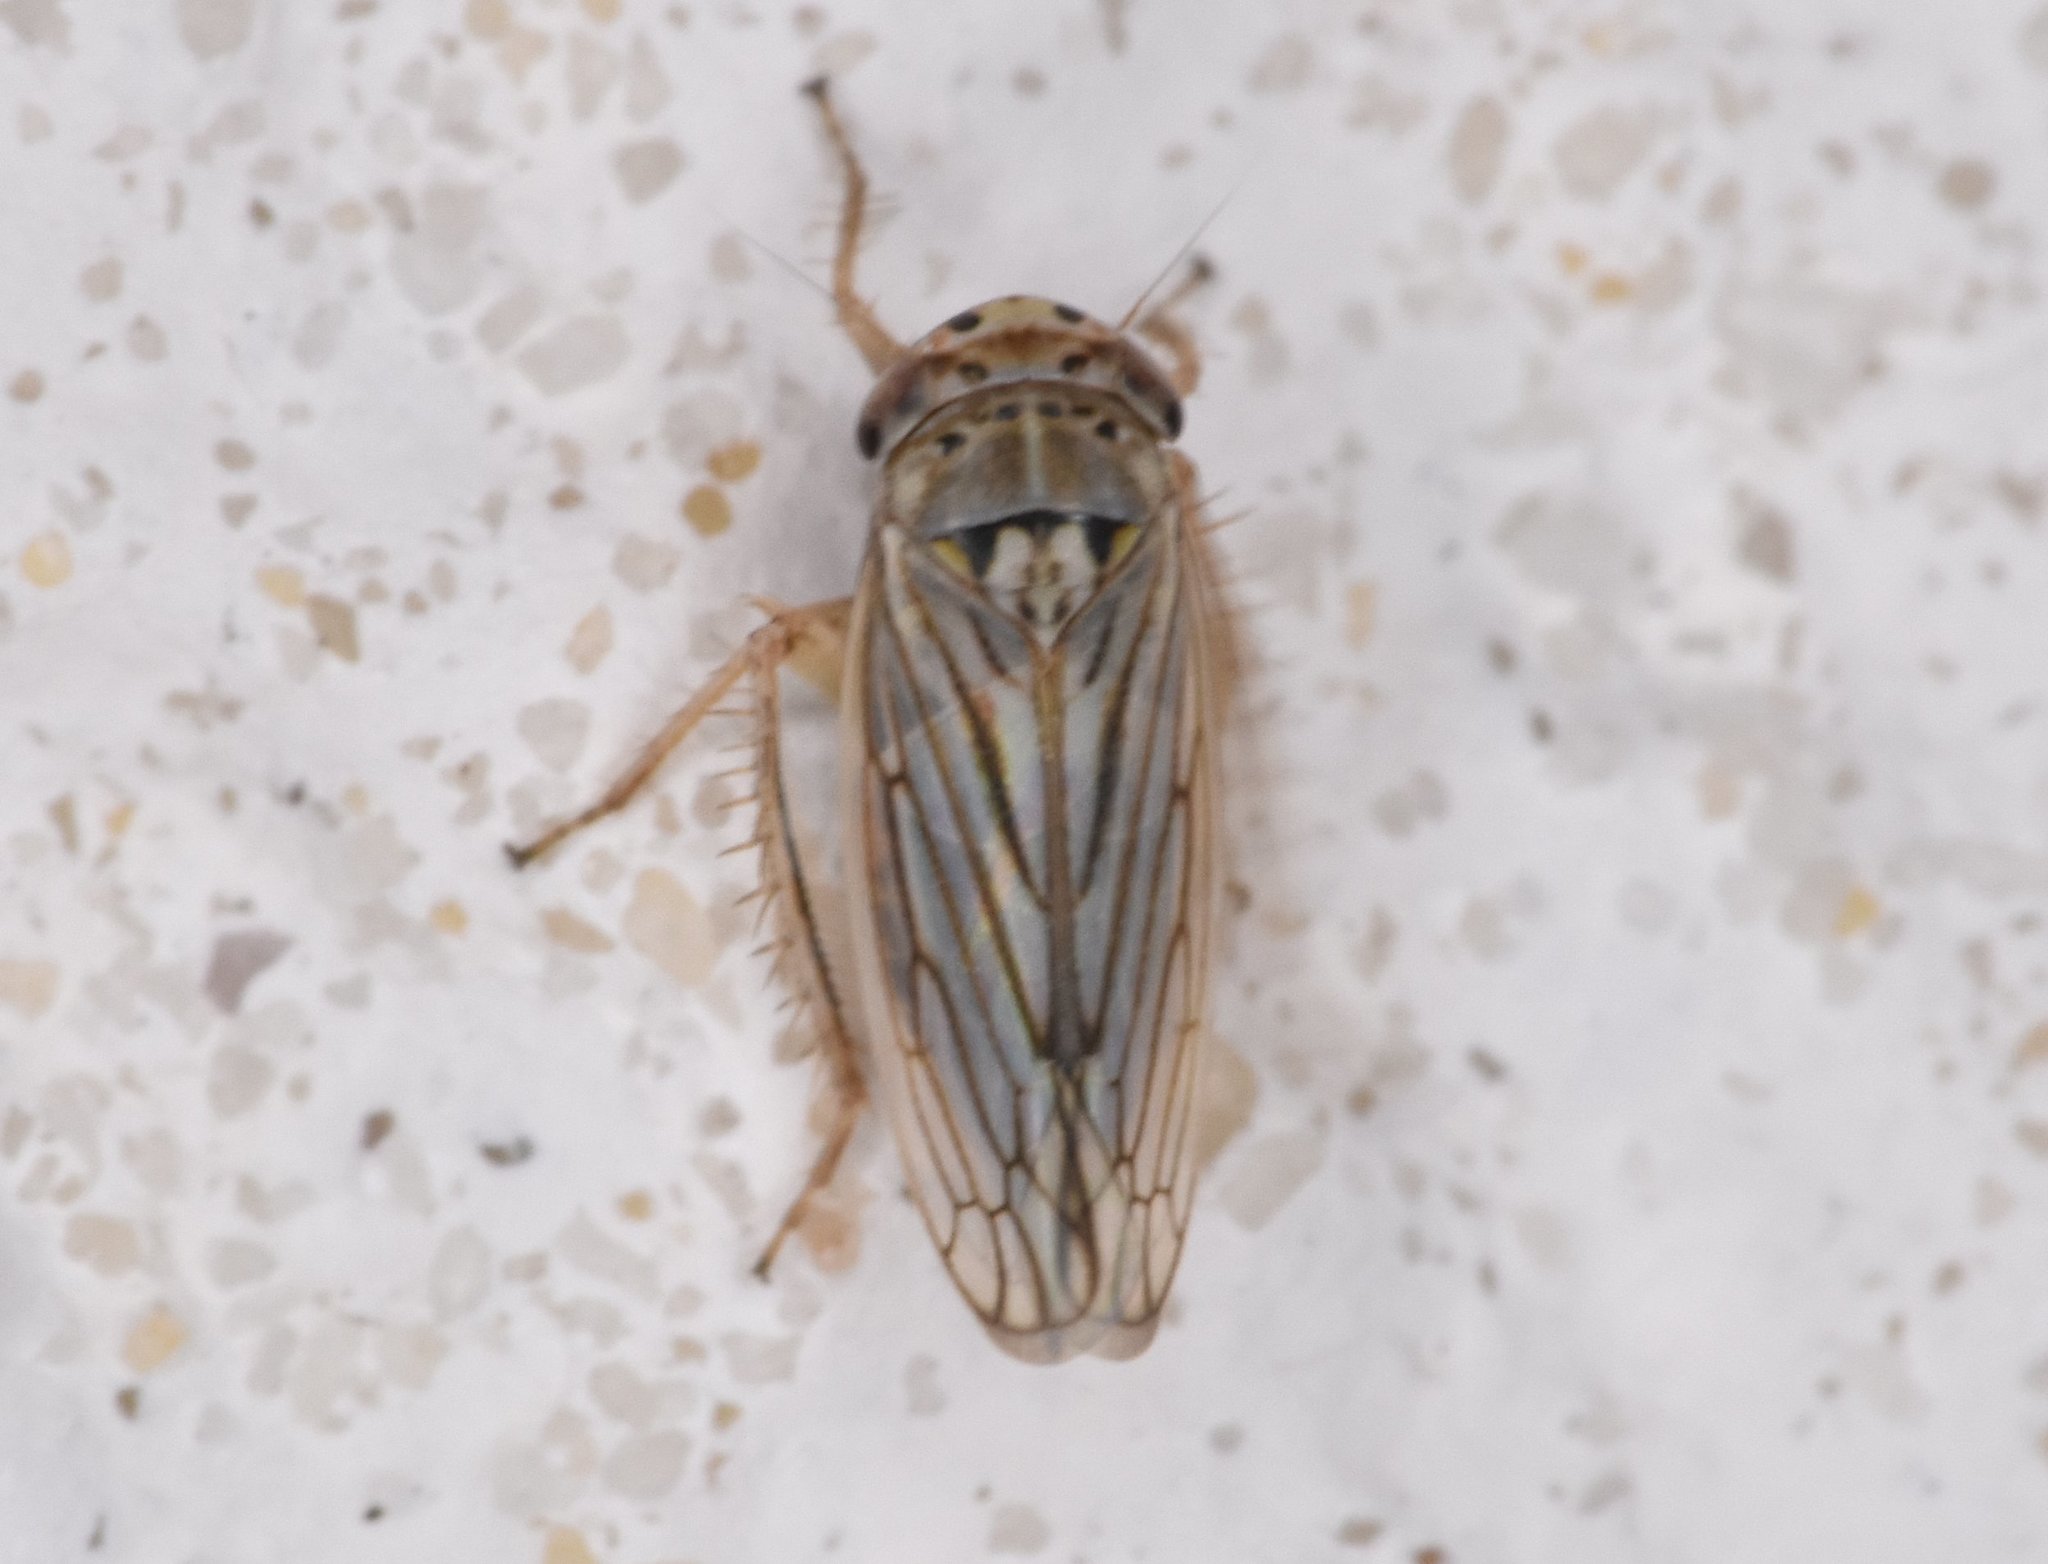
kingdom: Animalia
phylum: Arthropoda
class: Insecta
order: Hemiptera
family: Cicadellidae
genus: Exitianus
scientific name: Exitianus exitiosus
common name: Gray lawn leafhopper
